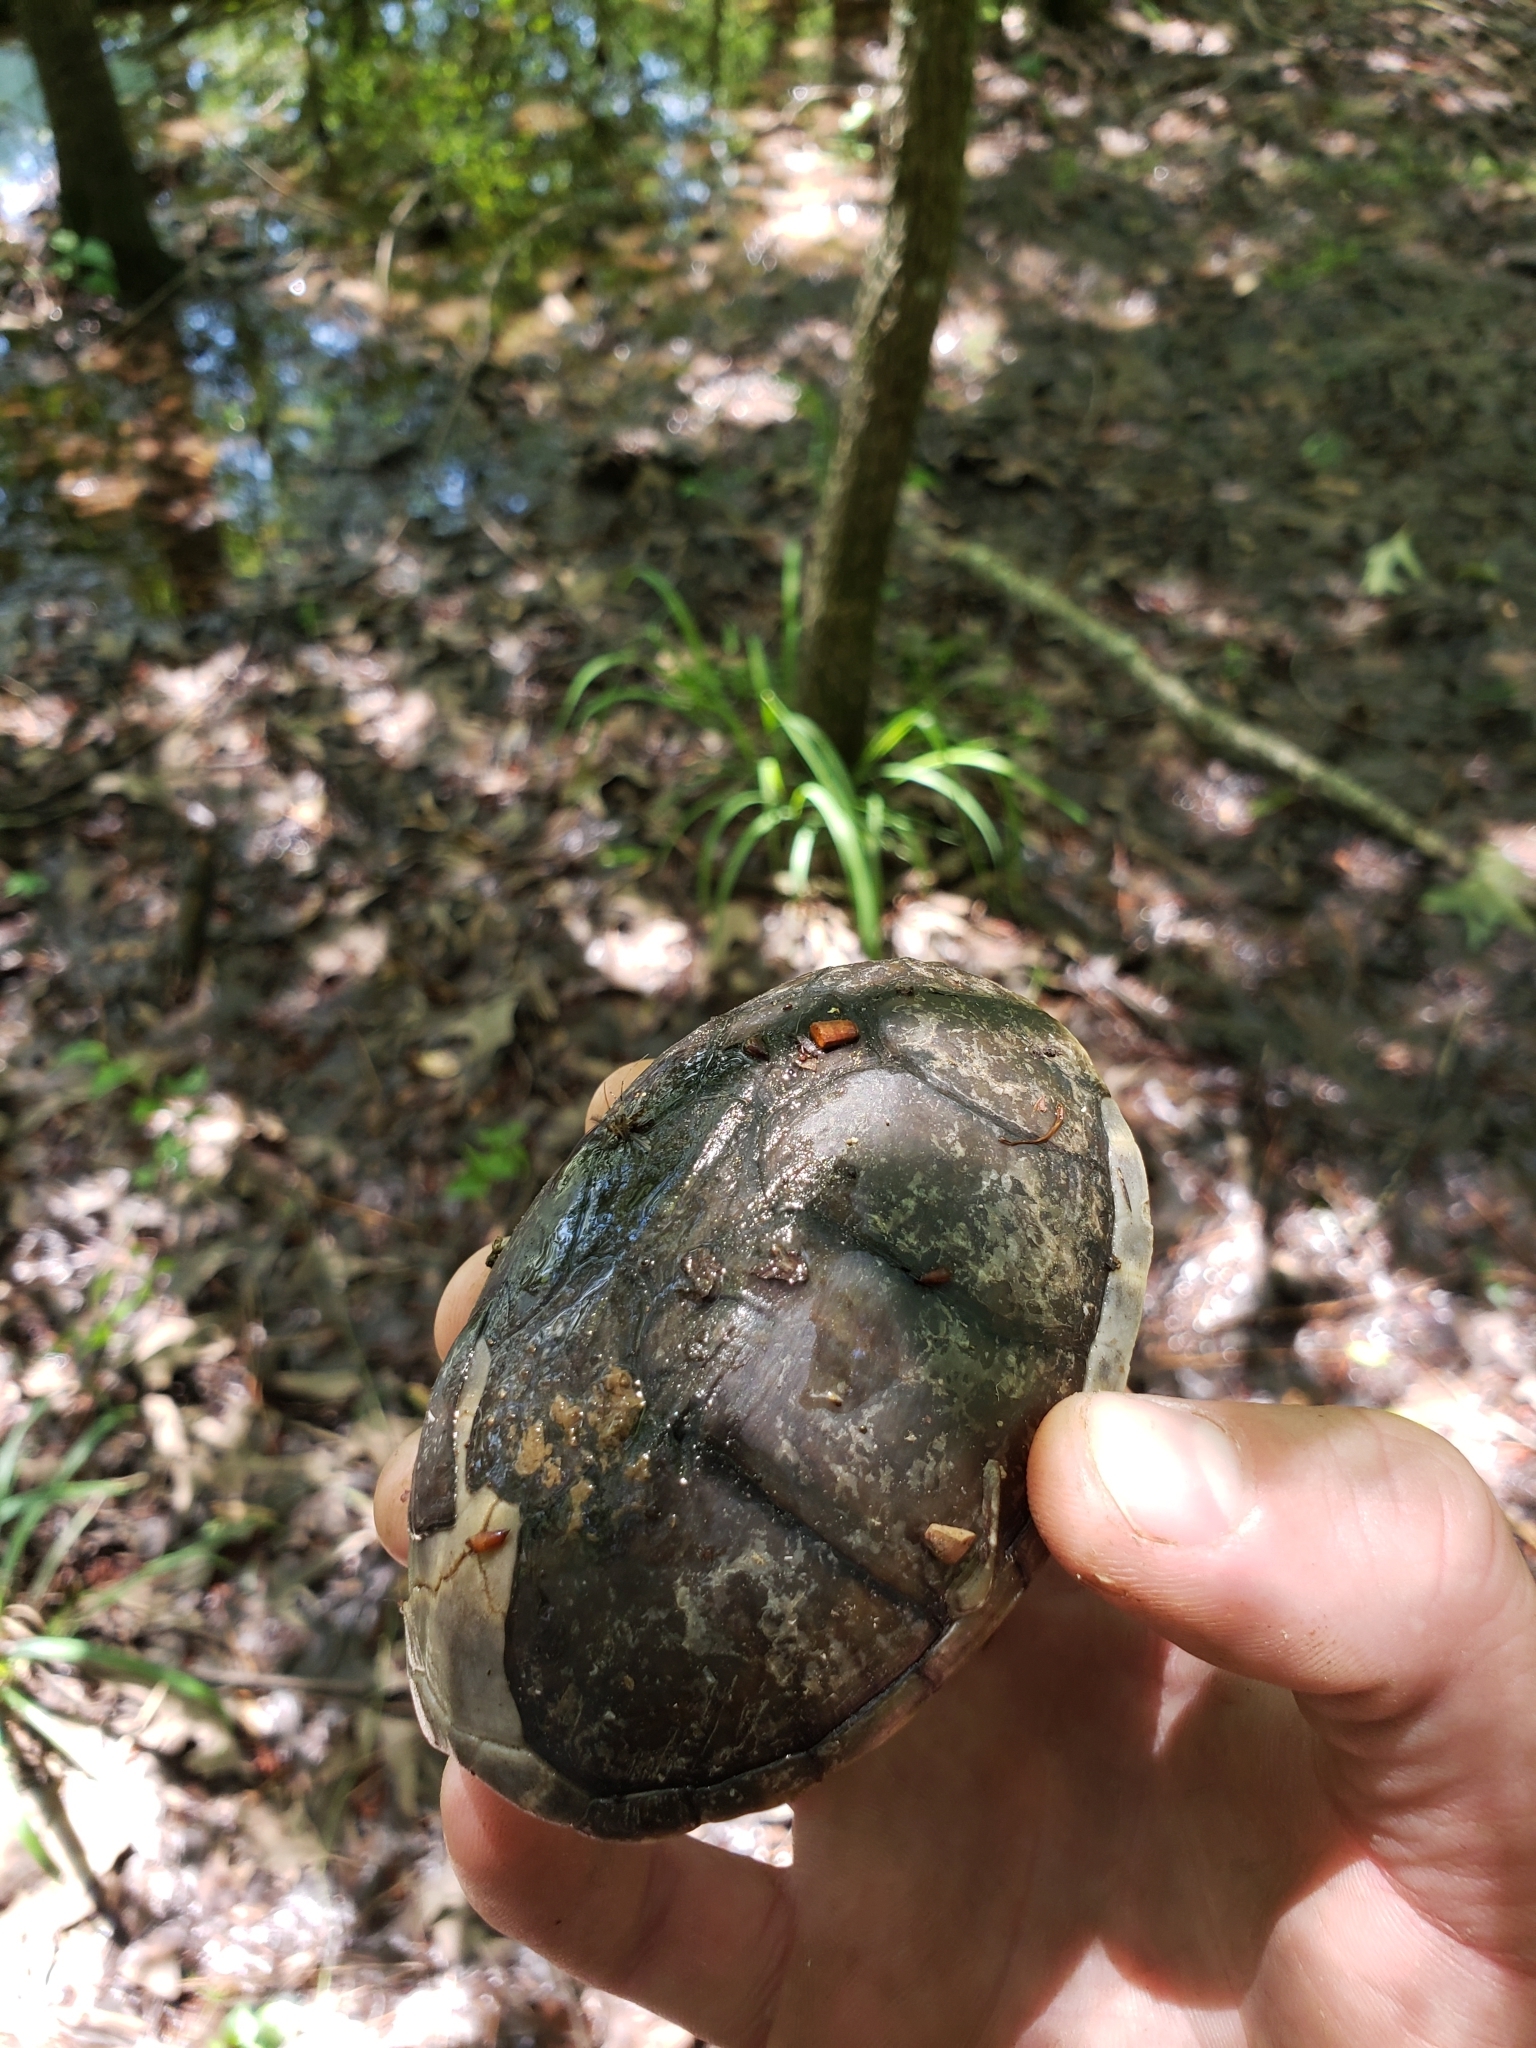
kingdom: Animalia
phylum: Chordata
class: Testudines
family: Kinosternidae
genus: Sternotherus
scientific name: Sternotherus odoratus
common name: Common musk turtle
